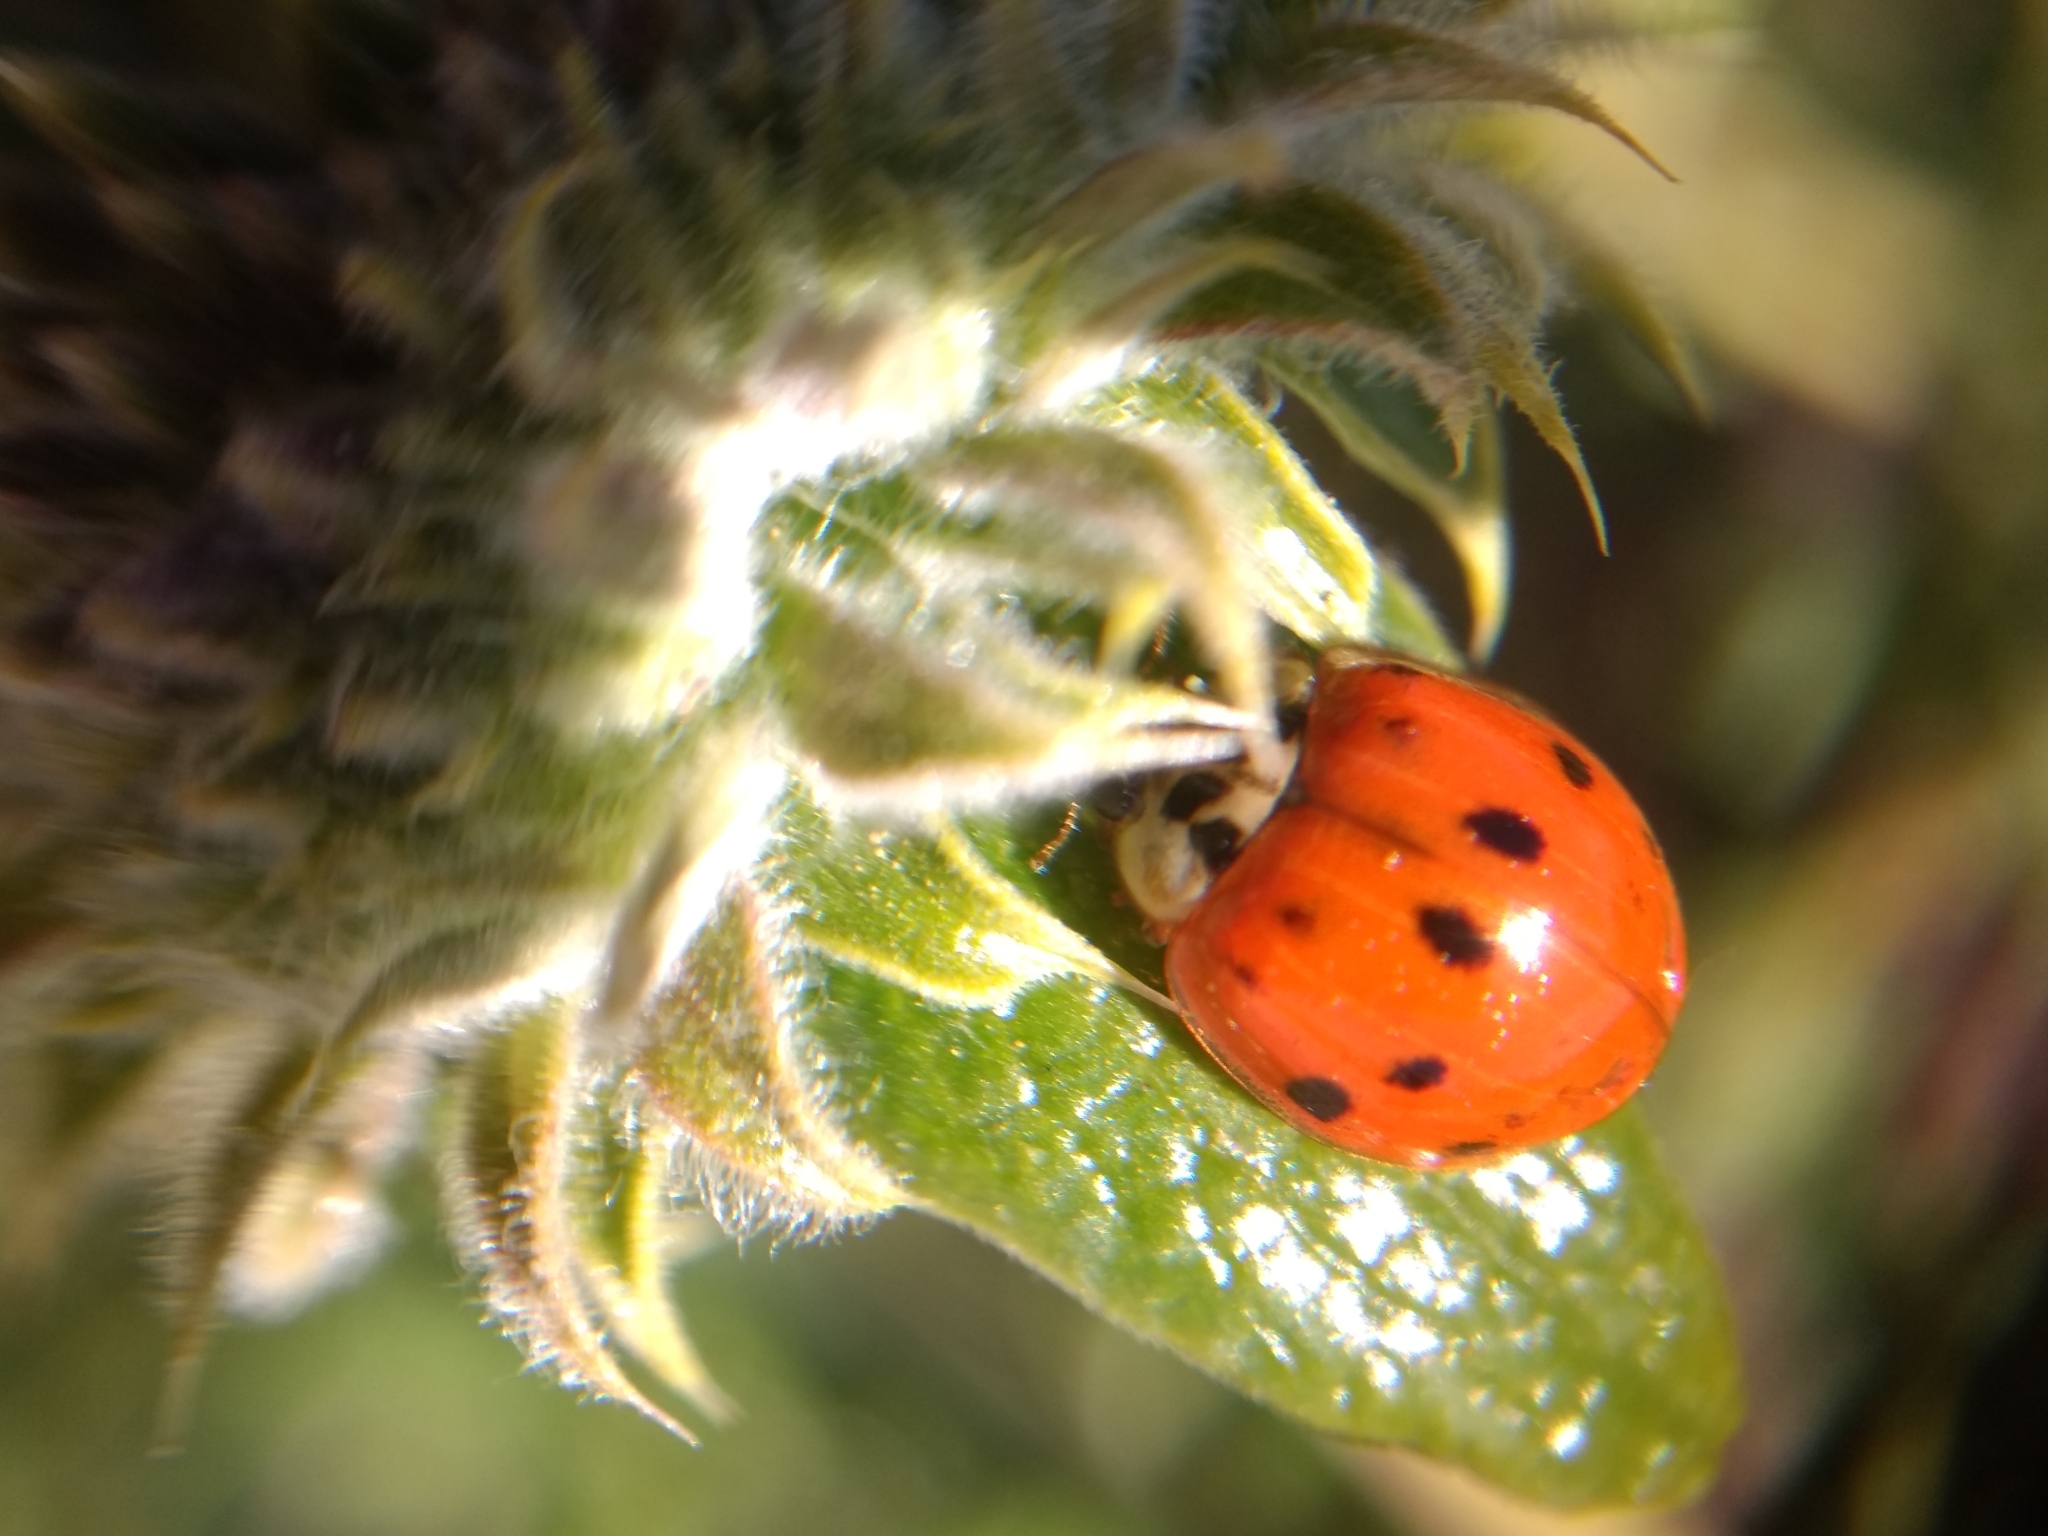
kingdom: Animalia
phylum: Arthropoda
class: Insecta
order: Coleoptera
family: Coccinellidae
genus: Harmonia
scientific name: Harmonia axyridis
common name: Harlequin ladybird
